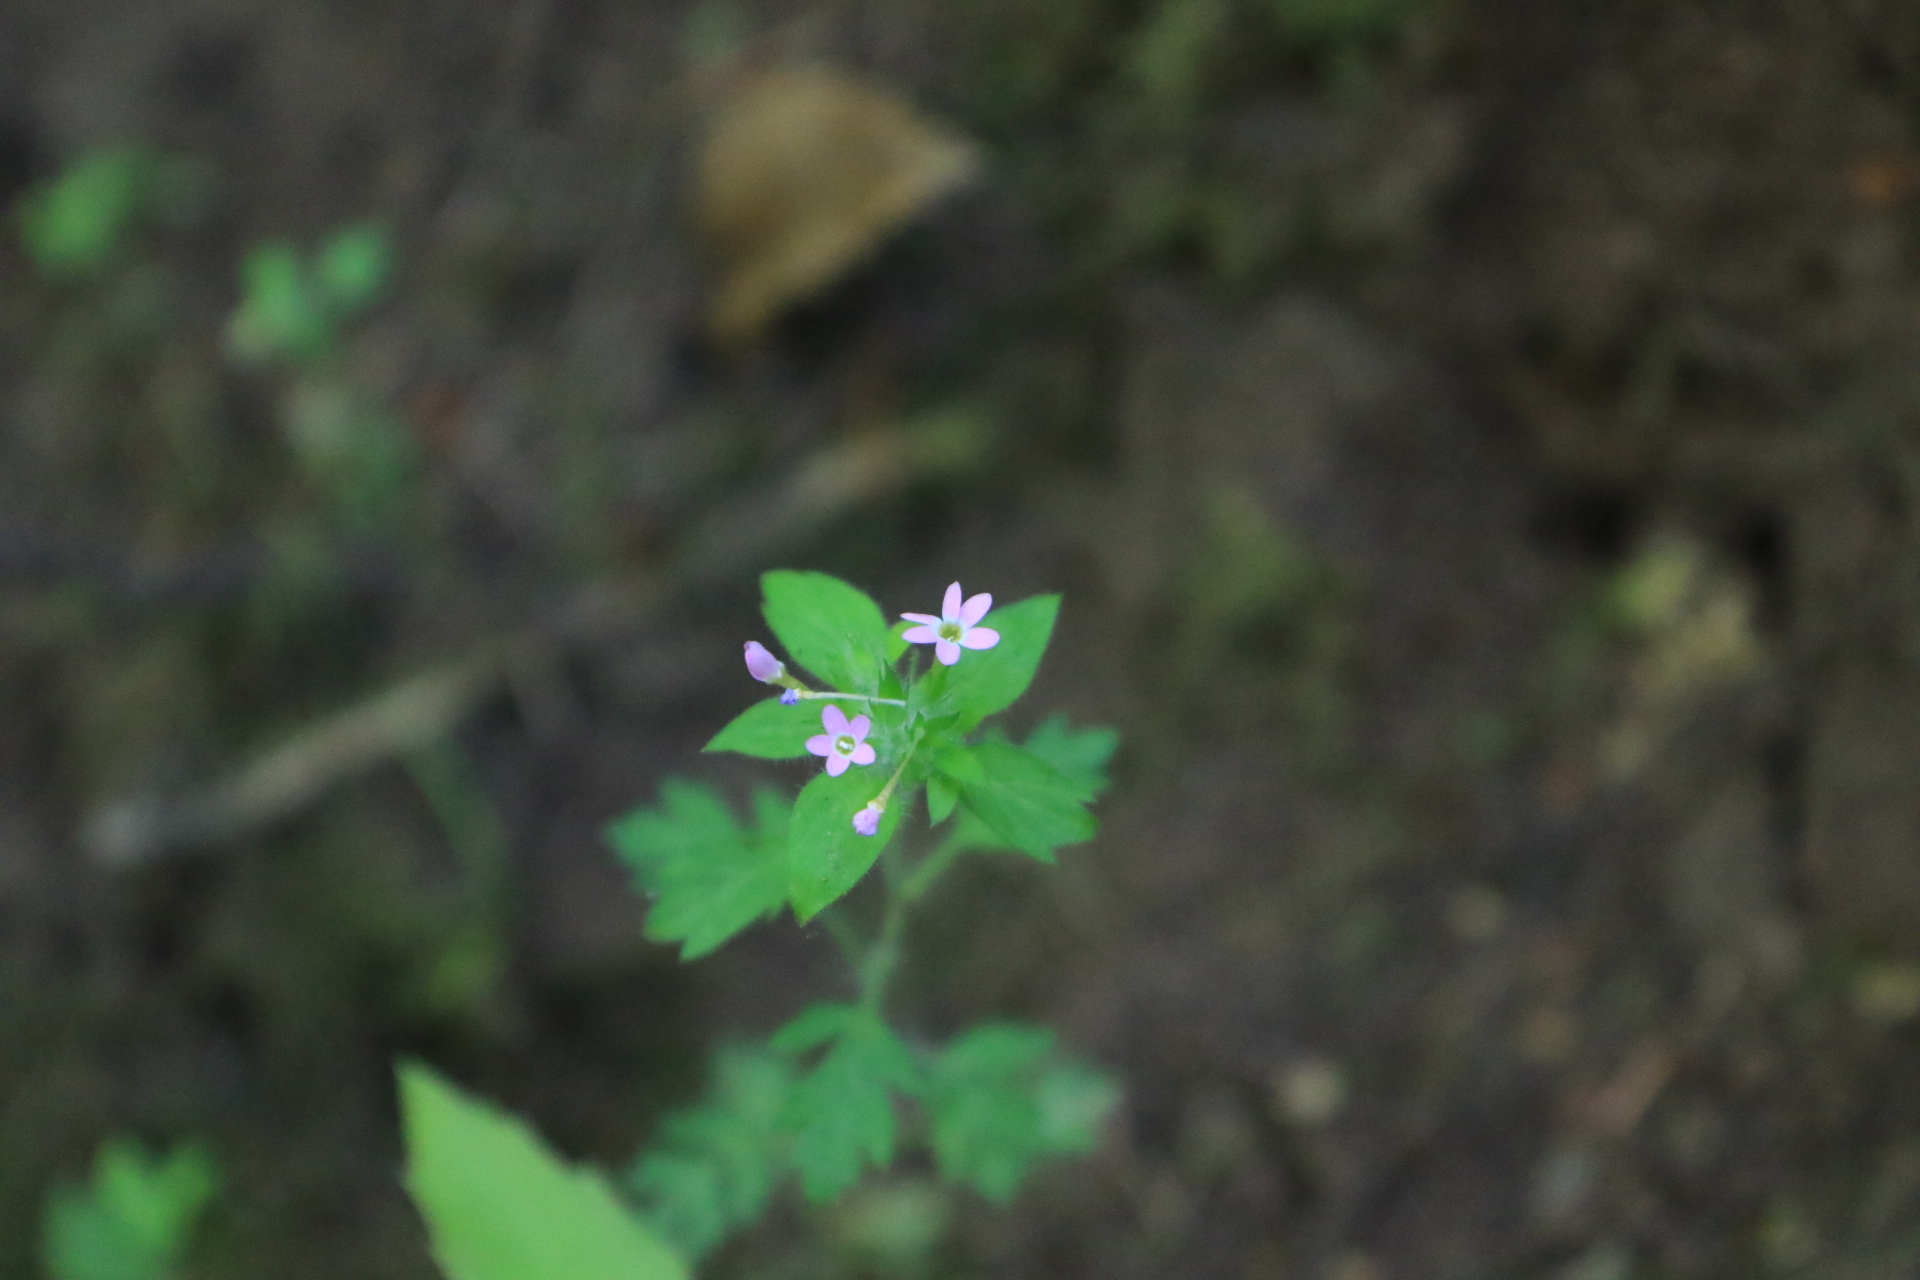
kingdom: Plantae
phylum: Tracheophyta
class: Magnoliopsida
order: Ericales
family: Polemoniaceae
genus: Collomia
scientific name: Collomia heterophylla
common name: Variable-leaved collomia
